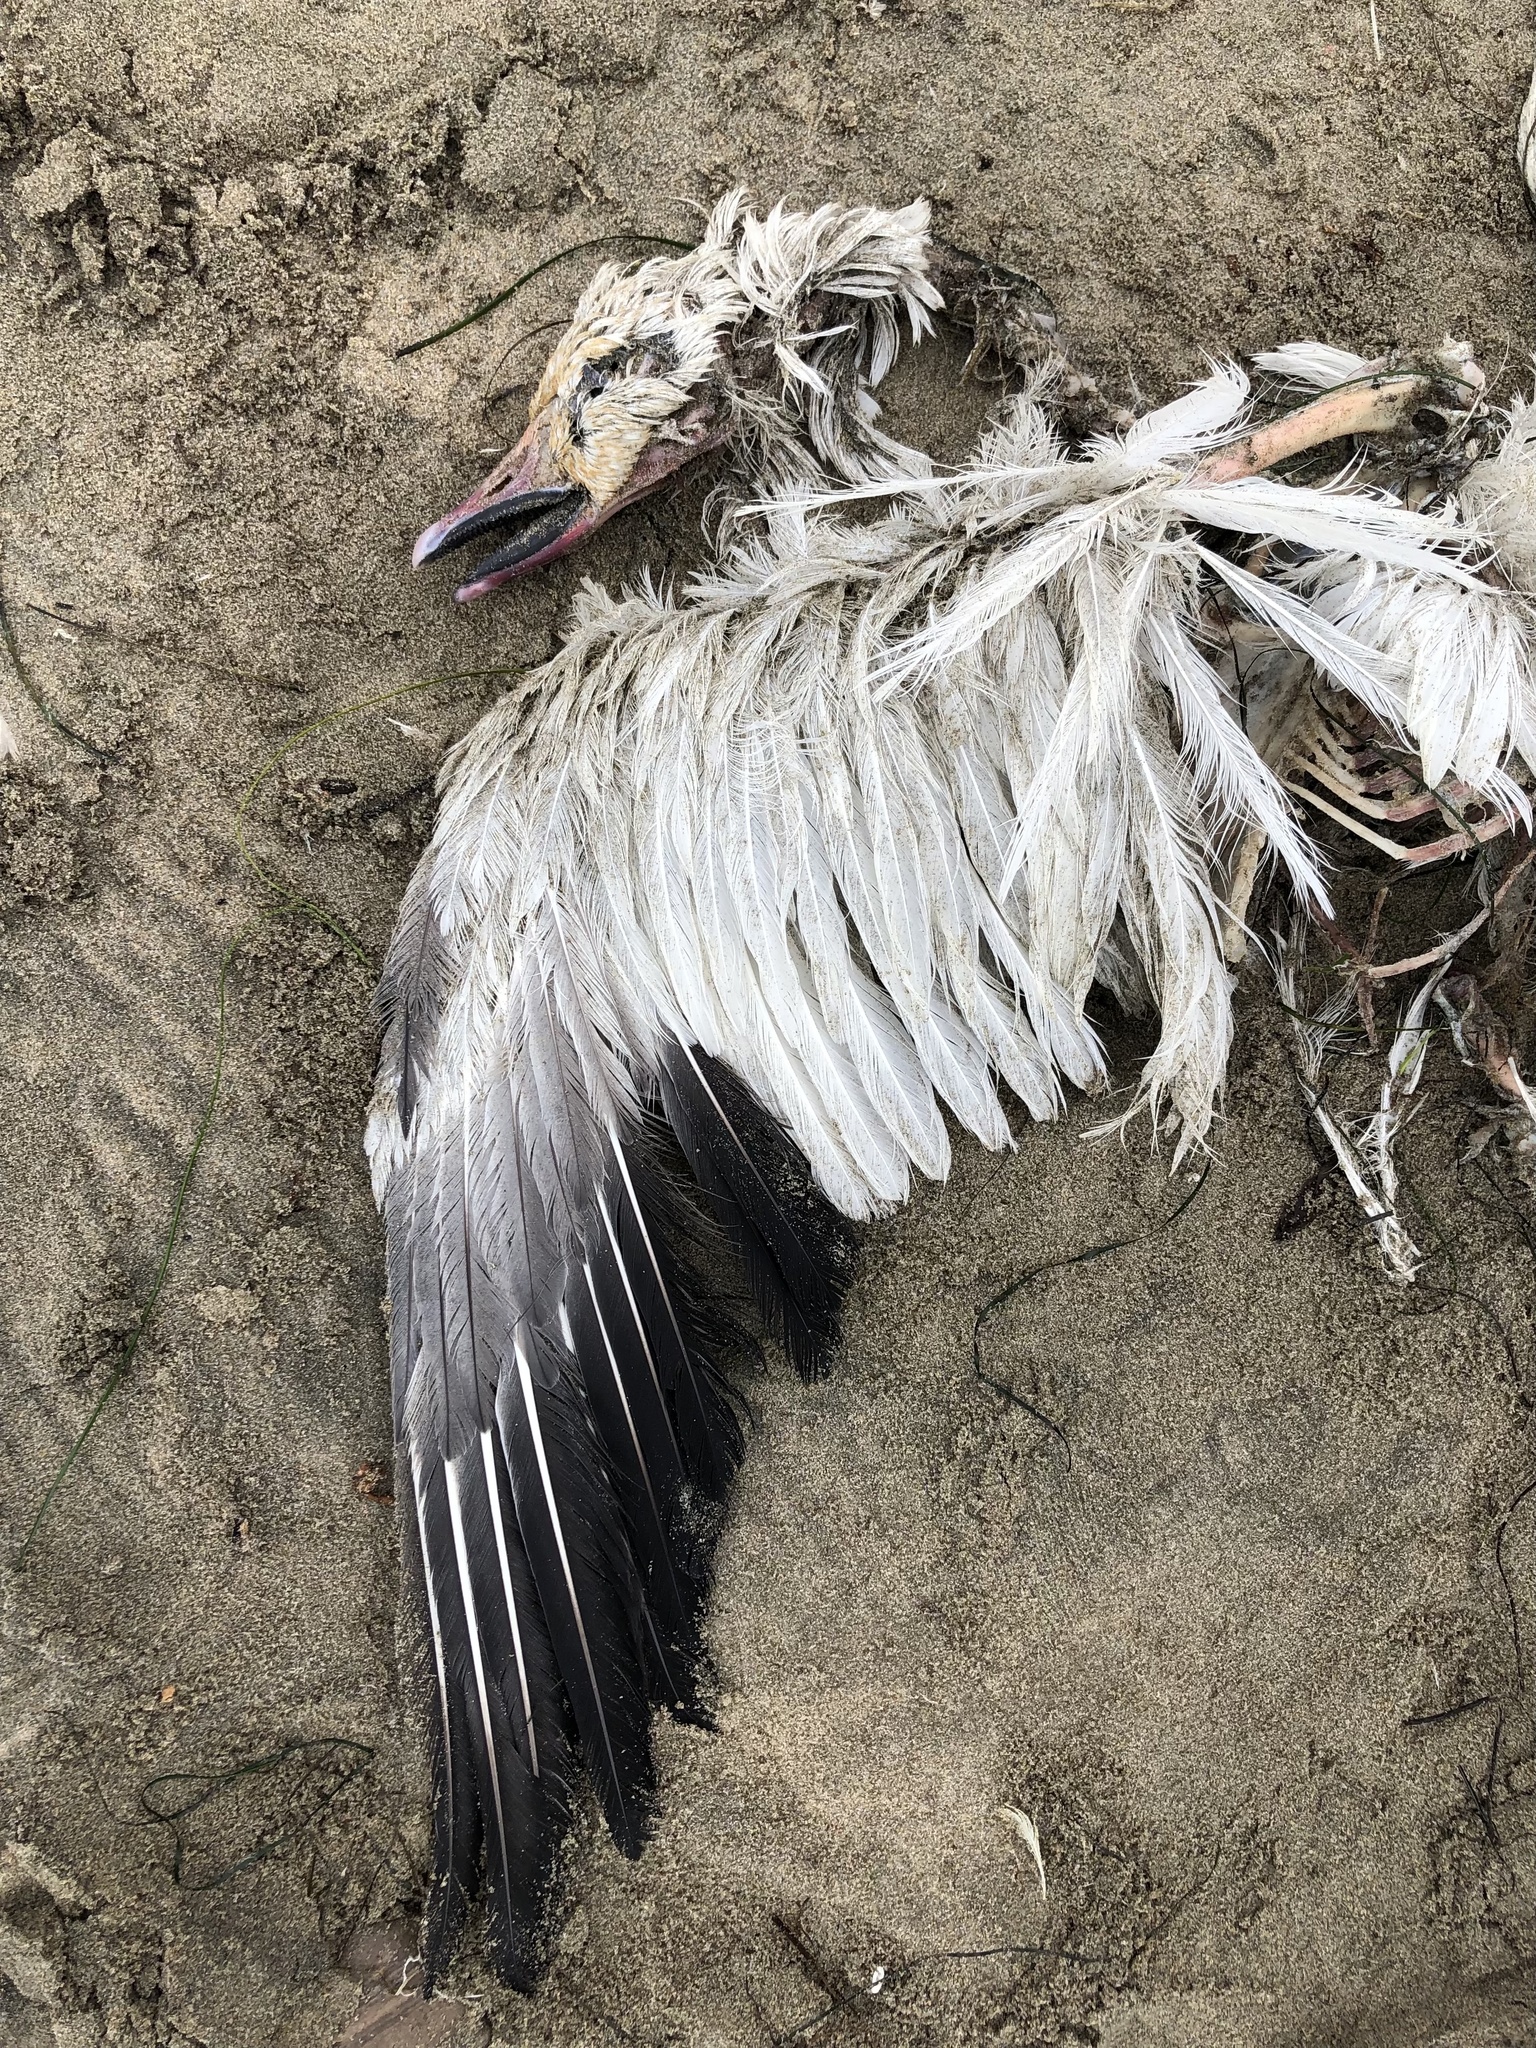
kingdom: Animalia
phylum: Chordata
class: Aves
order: Anseriformes
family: Anatidae
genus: Anser
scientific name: Anser caerulescens
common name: Snow goose
